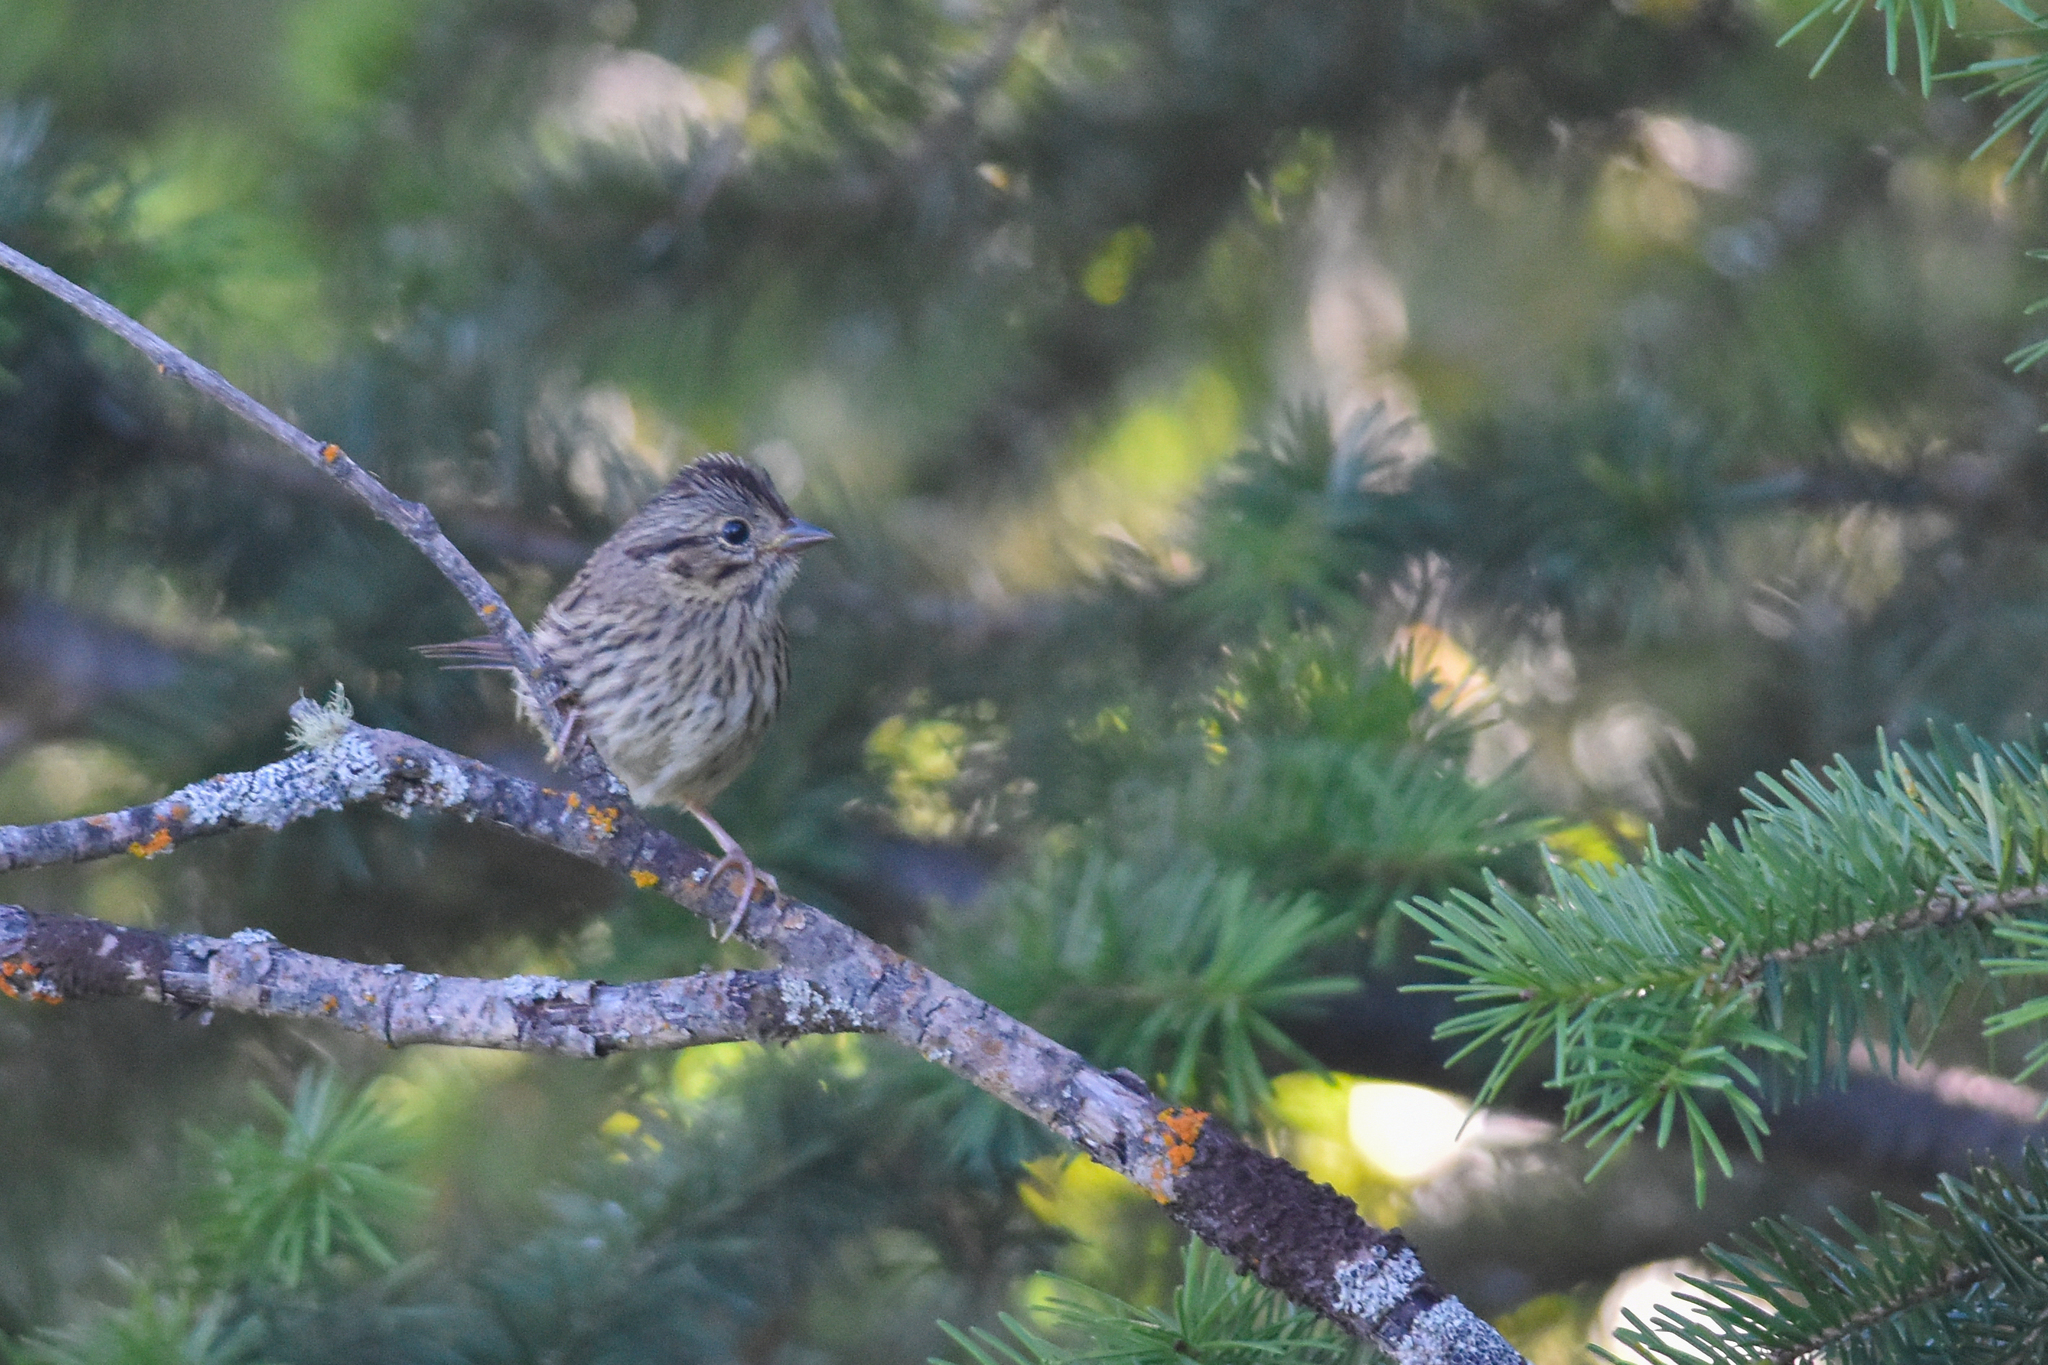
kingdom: Animalia
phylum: Chordata
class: Aves
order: Passeriformes
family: Passerellidae
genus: Melospiza
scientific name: Melospiza lincolnii
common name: Lincoln's sparrow
